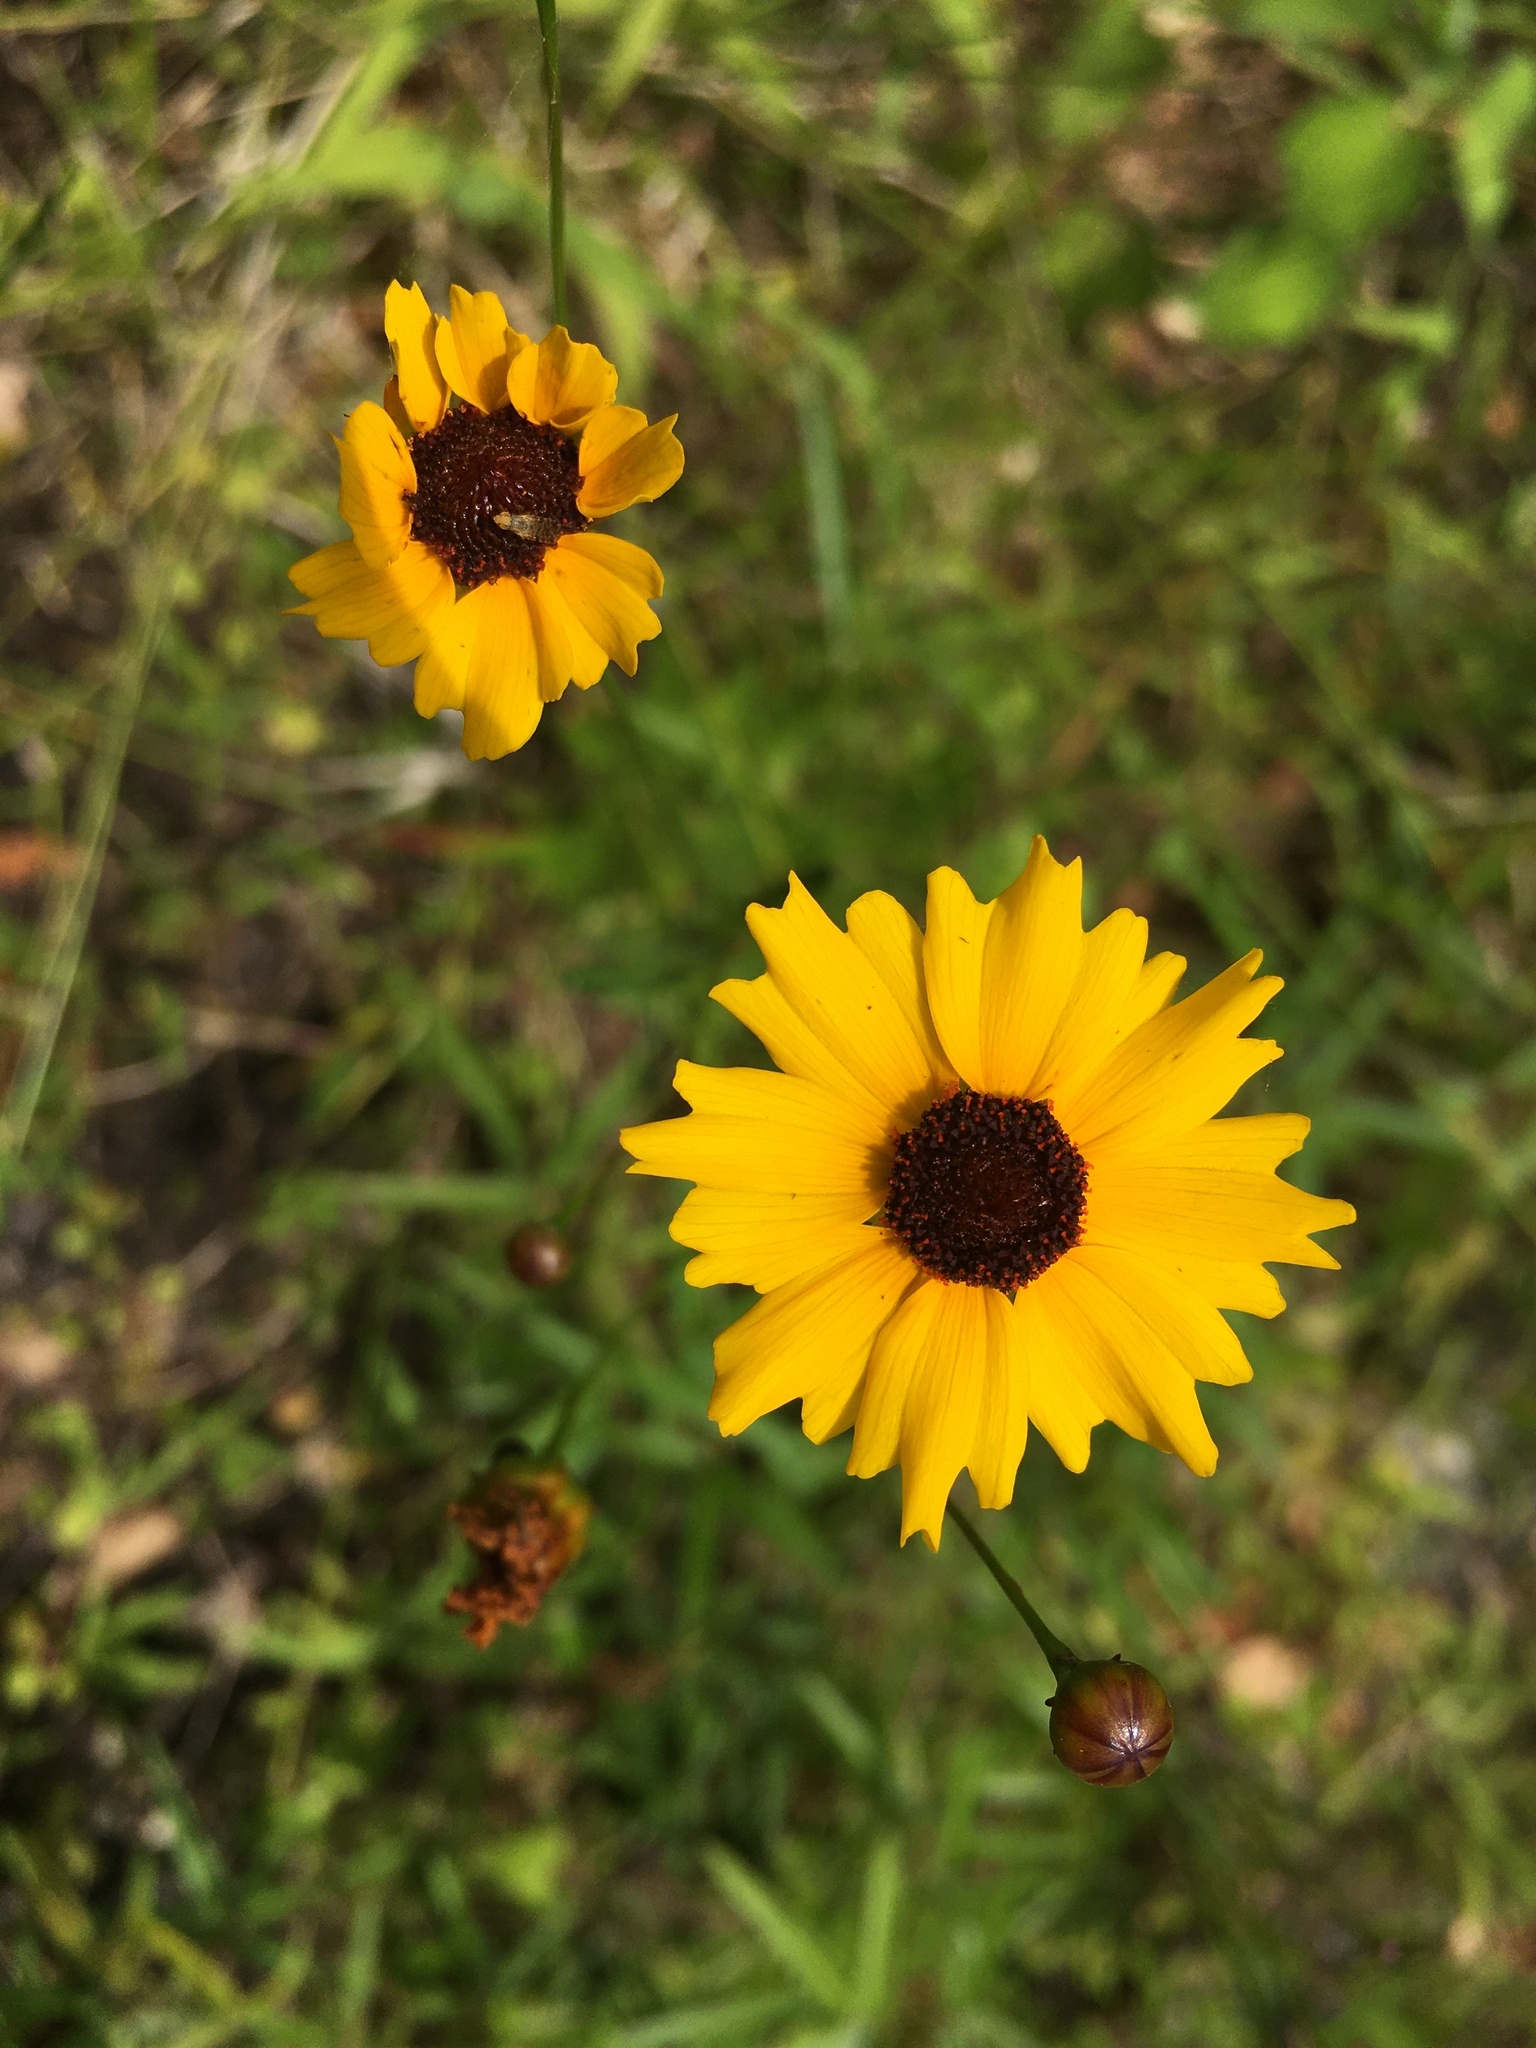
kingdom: Plantae
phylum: Tracheophyta
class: Magnoliopsida
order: Asterales
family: Asteraceae
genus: Coreopsis
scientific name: Coreopsis leavenworthii
